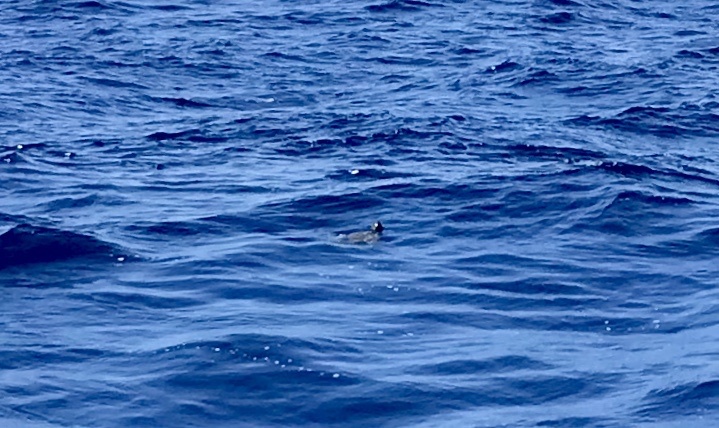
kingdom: Animalia
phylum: Chordata
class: Testudines
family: Cheloniidae
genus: Chelonia
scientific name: Chelonia mydas
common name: Green turtle
